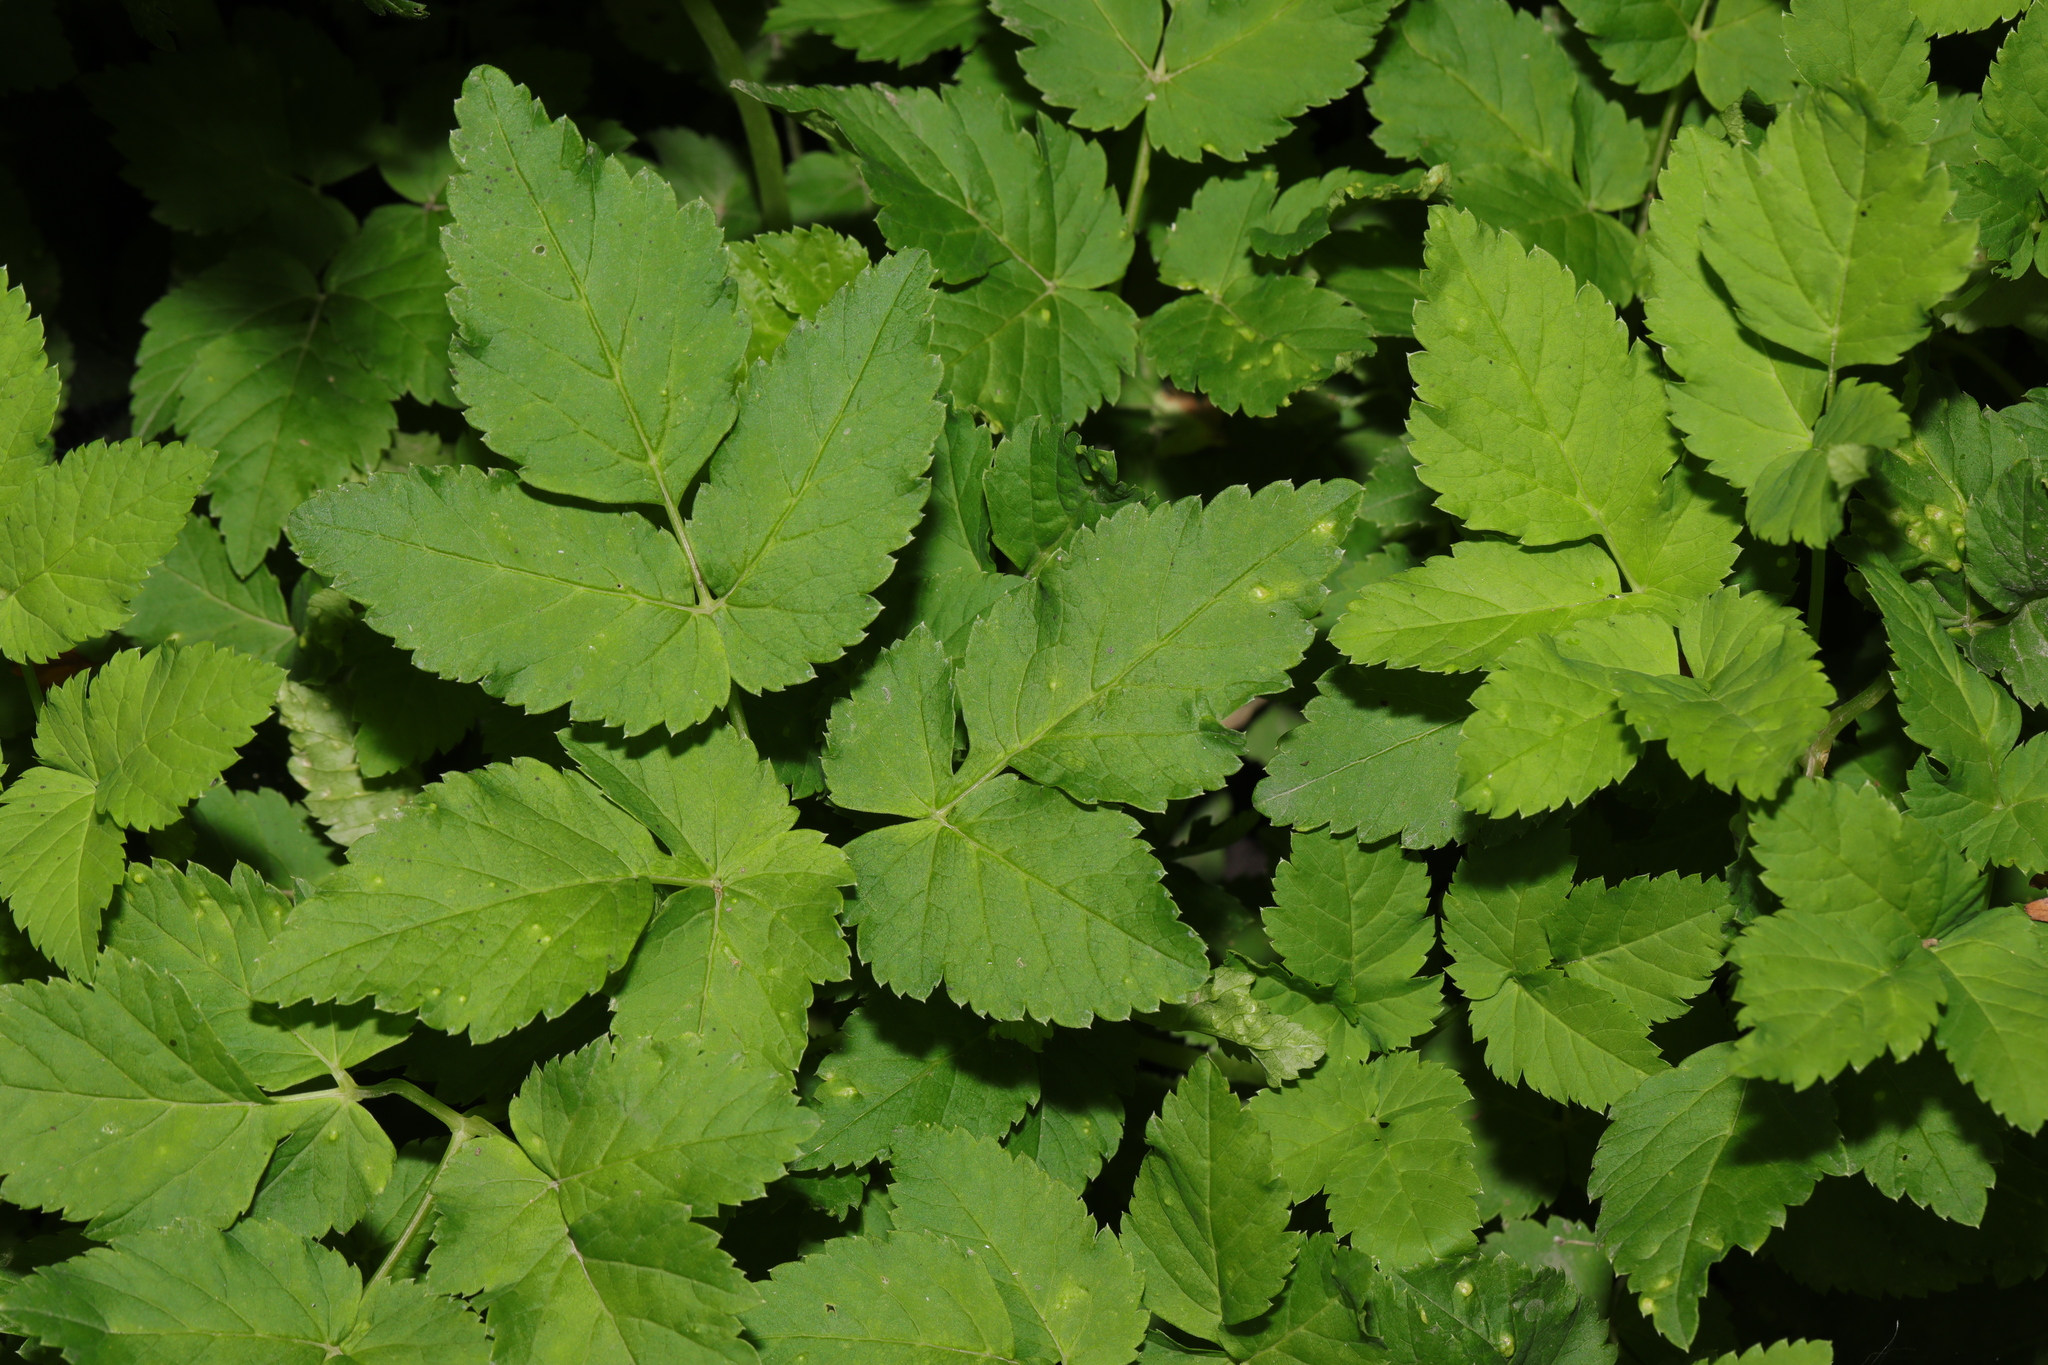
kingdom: Plantae
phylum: Tracheophyta
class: Magnoliopsida
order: Apiales
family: Apiaceae
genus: Aegopodium
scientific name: Aegopodium podagraria
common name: Ground-elder
